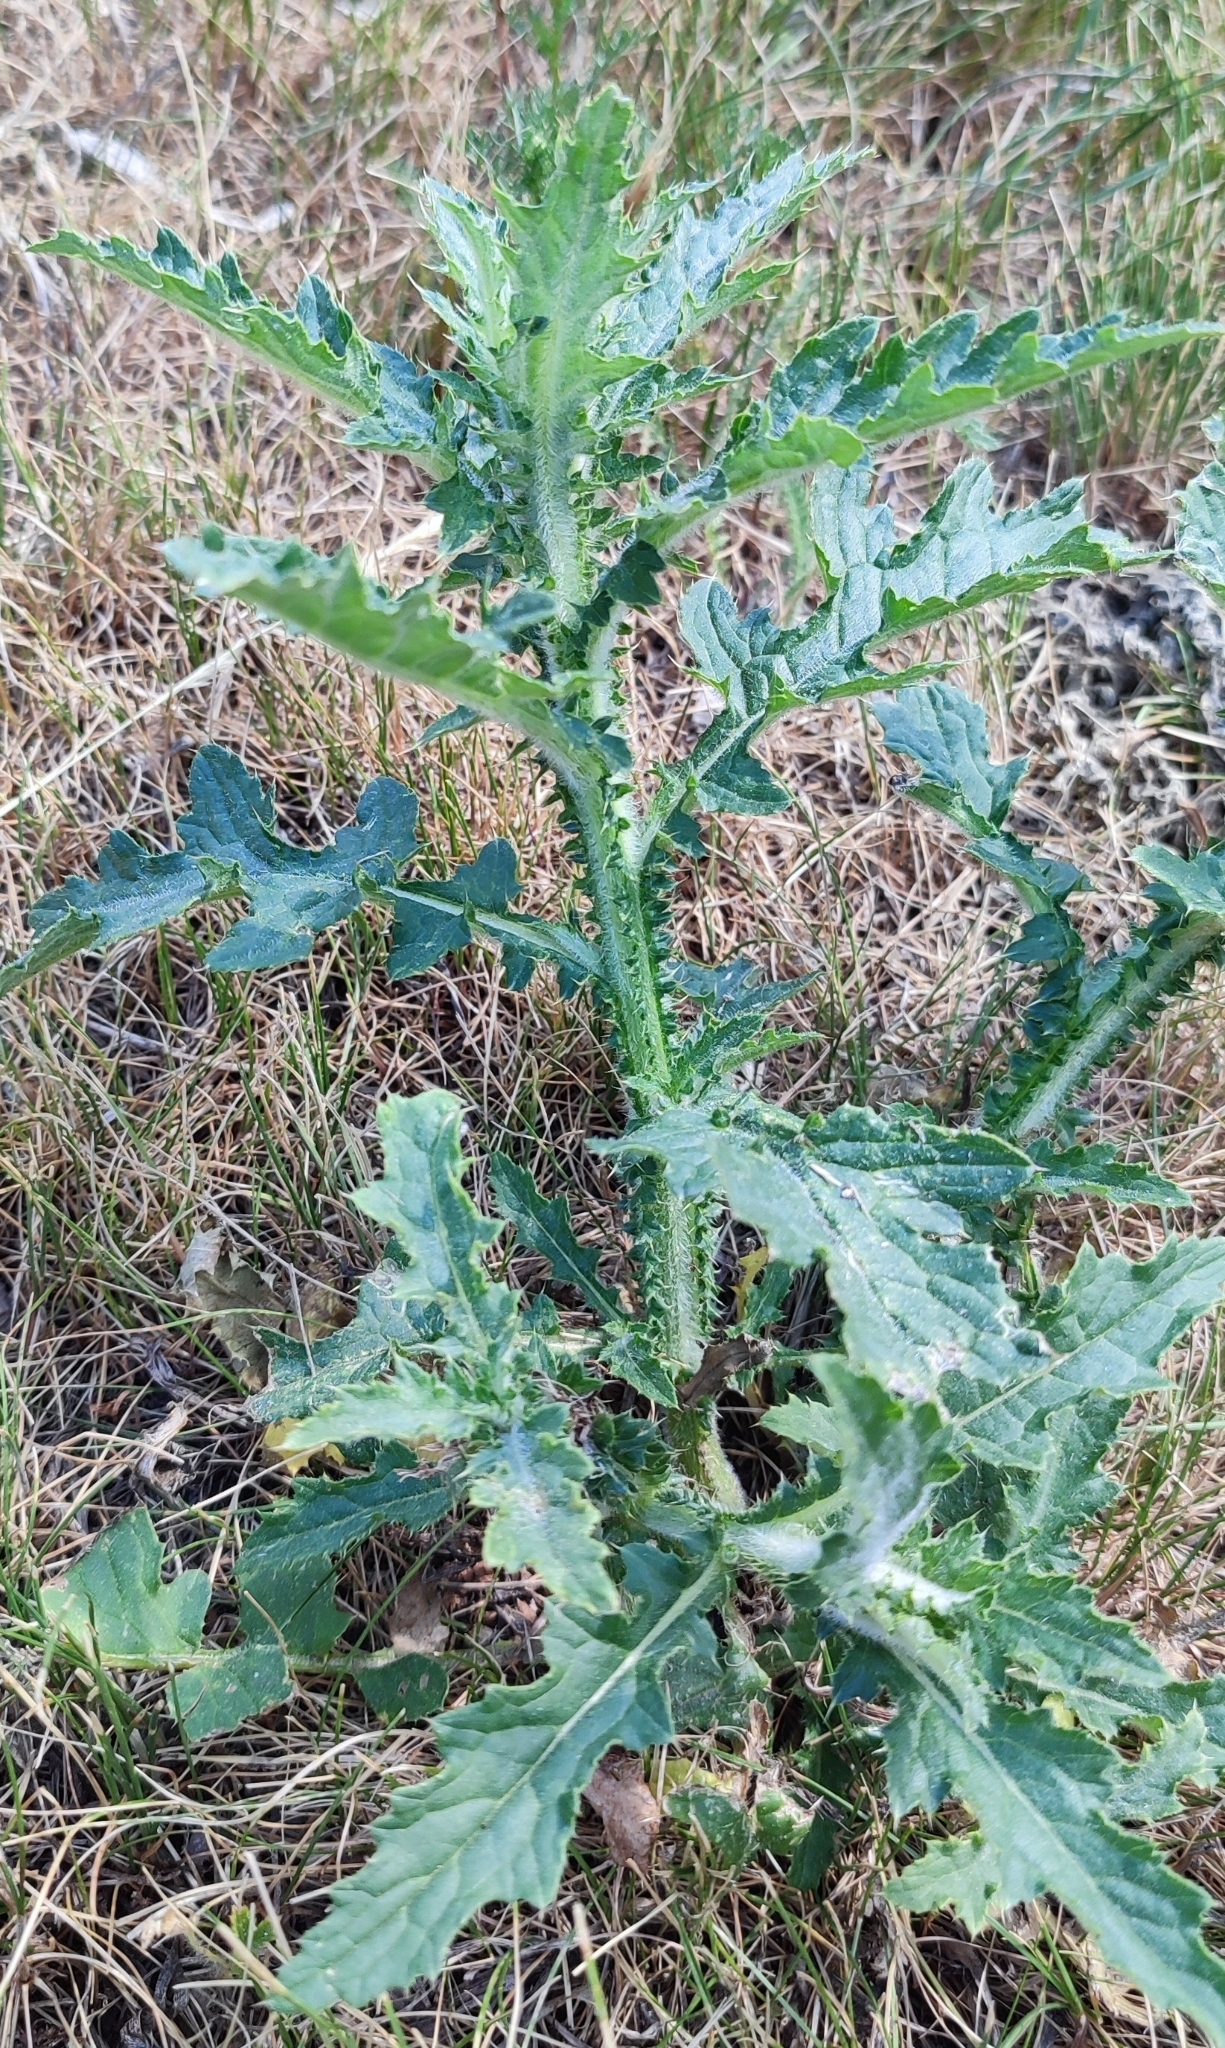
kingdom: Plantae
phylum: Tracheophyta
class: Magnoliopsida
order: Asterales
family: Asteraceae
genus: Carduus
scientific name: Carduus crispus
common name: Welted thistle
